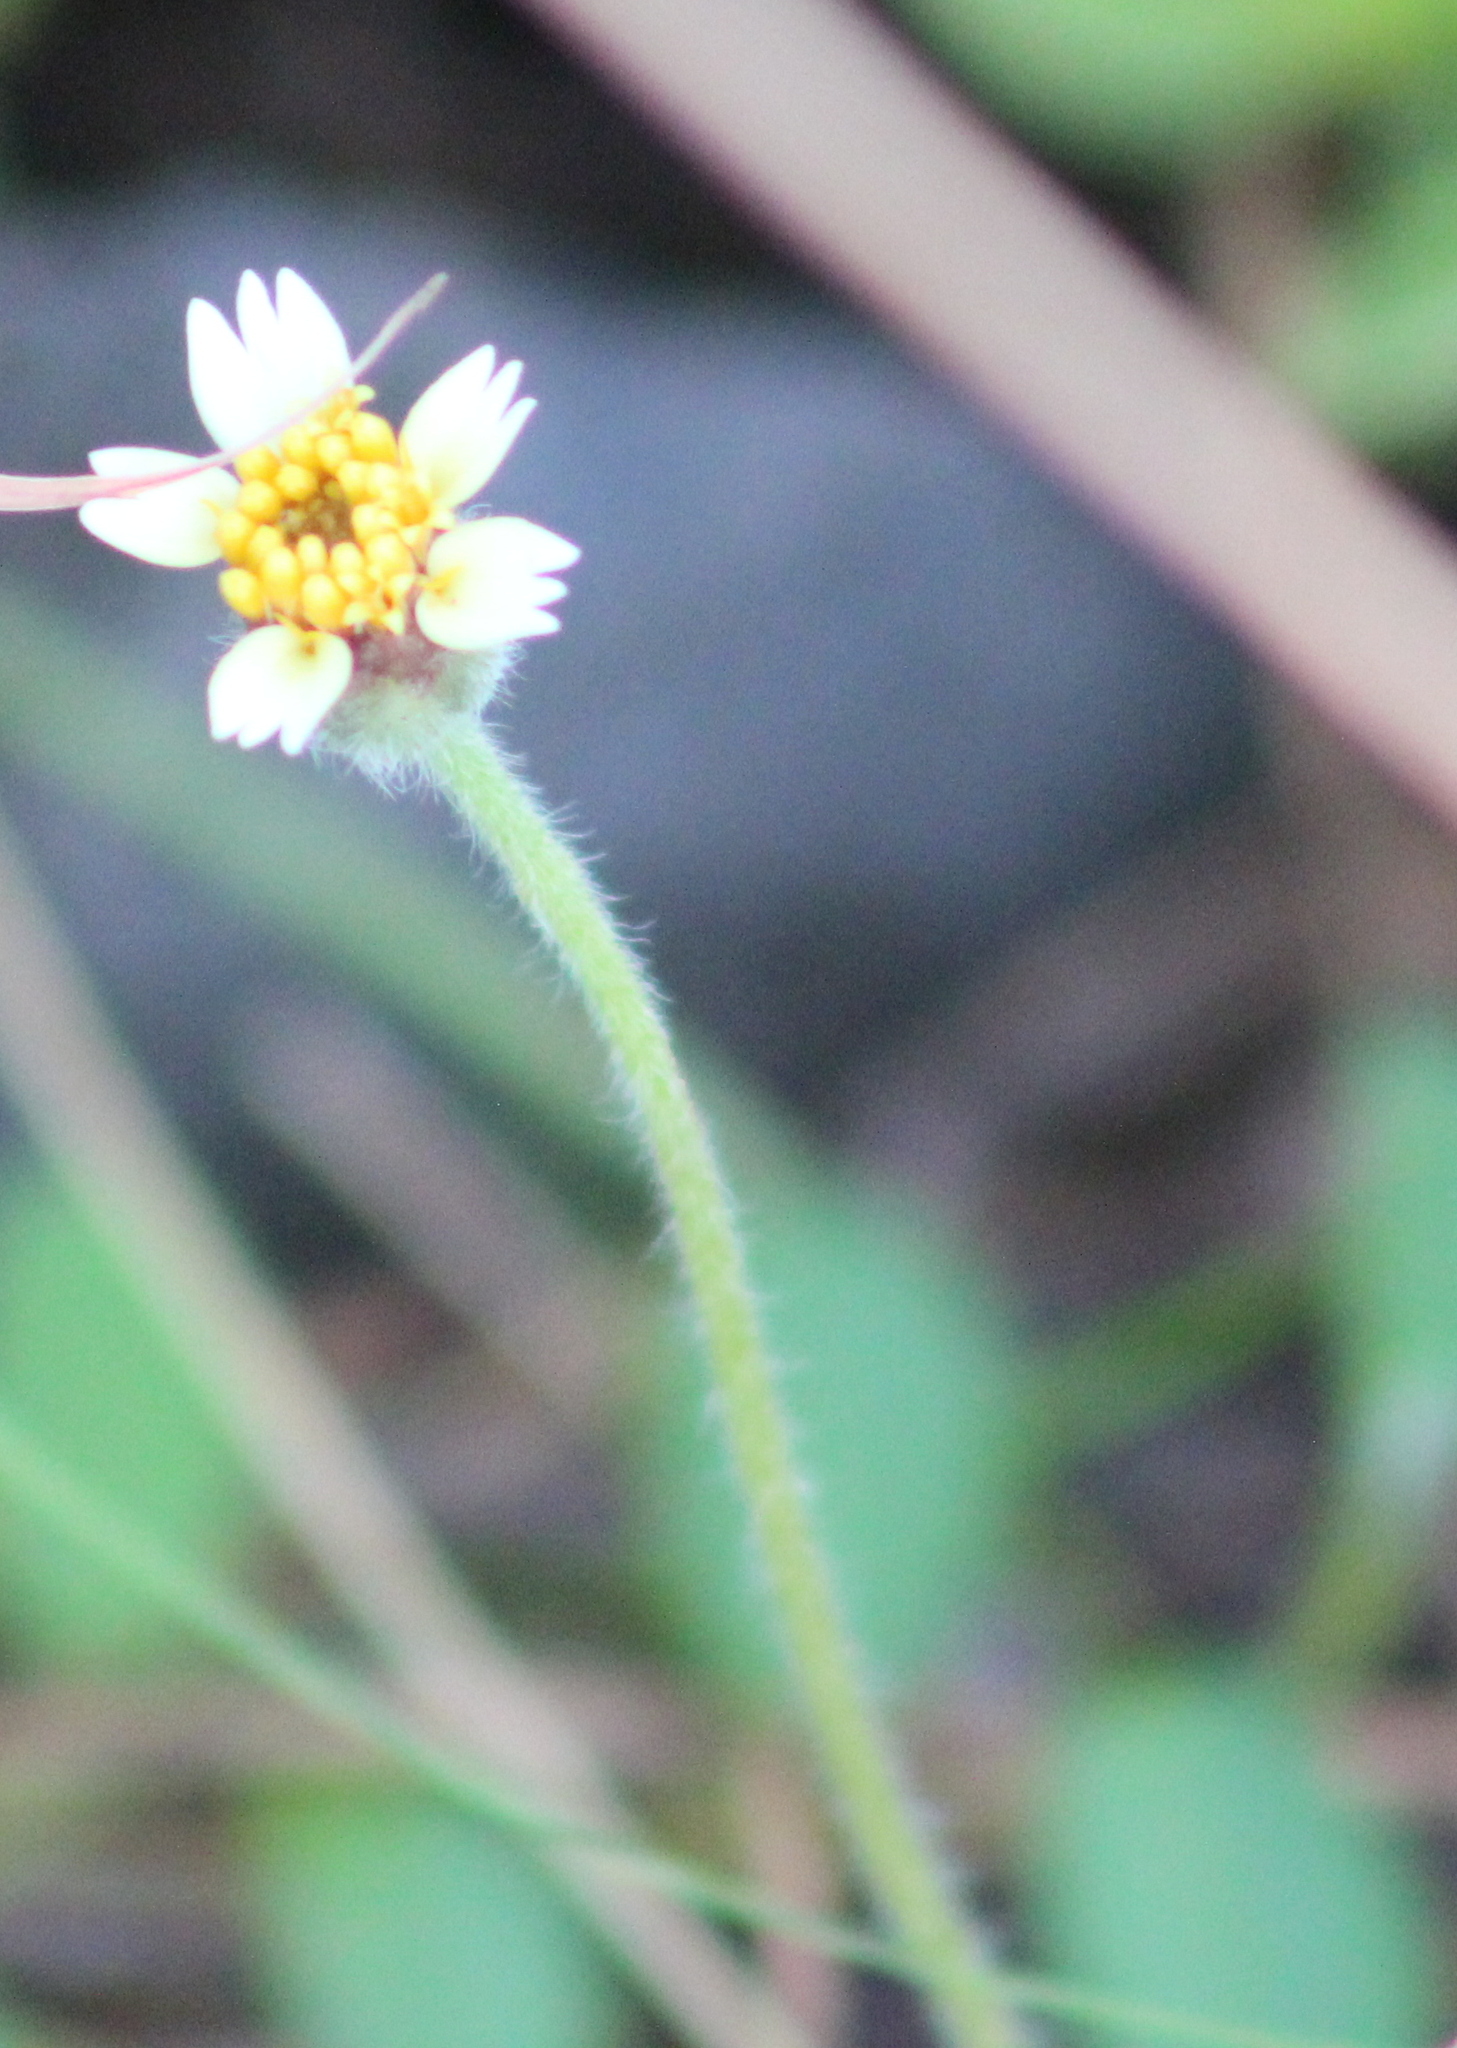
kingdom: Plantae
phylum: Tracheophyta
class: Magnoliopsida
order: Asterales
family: Asteraceae
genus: Tridax
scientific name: Tridax procumbens
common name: Coatbuttons
